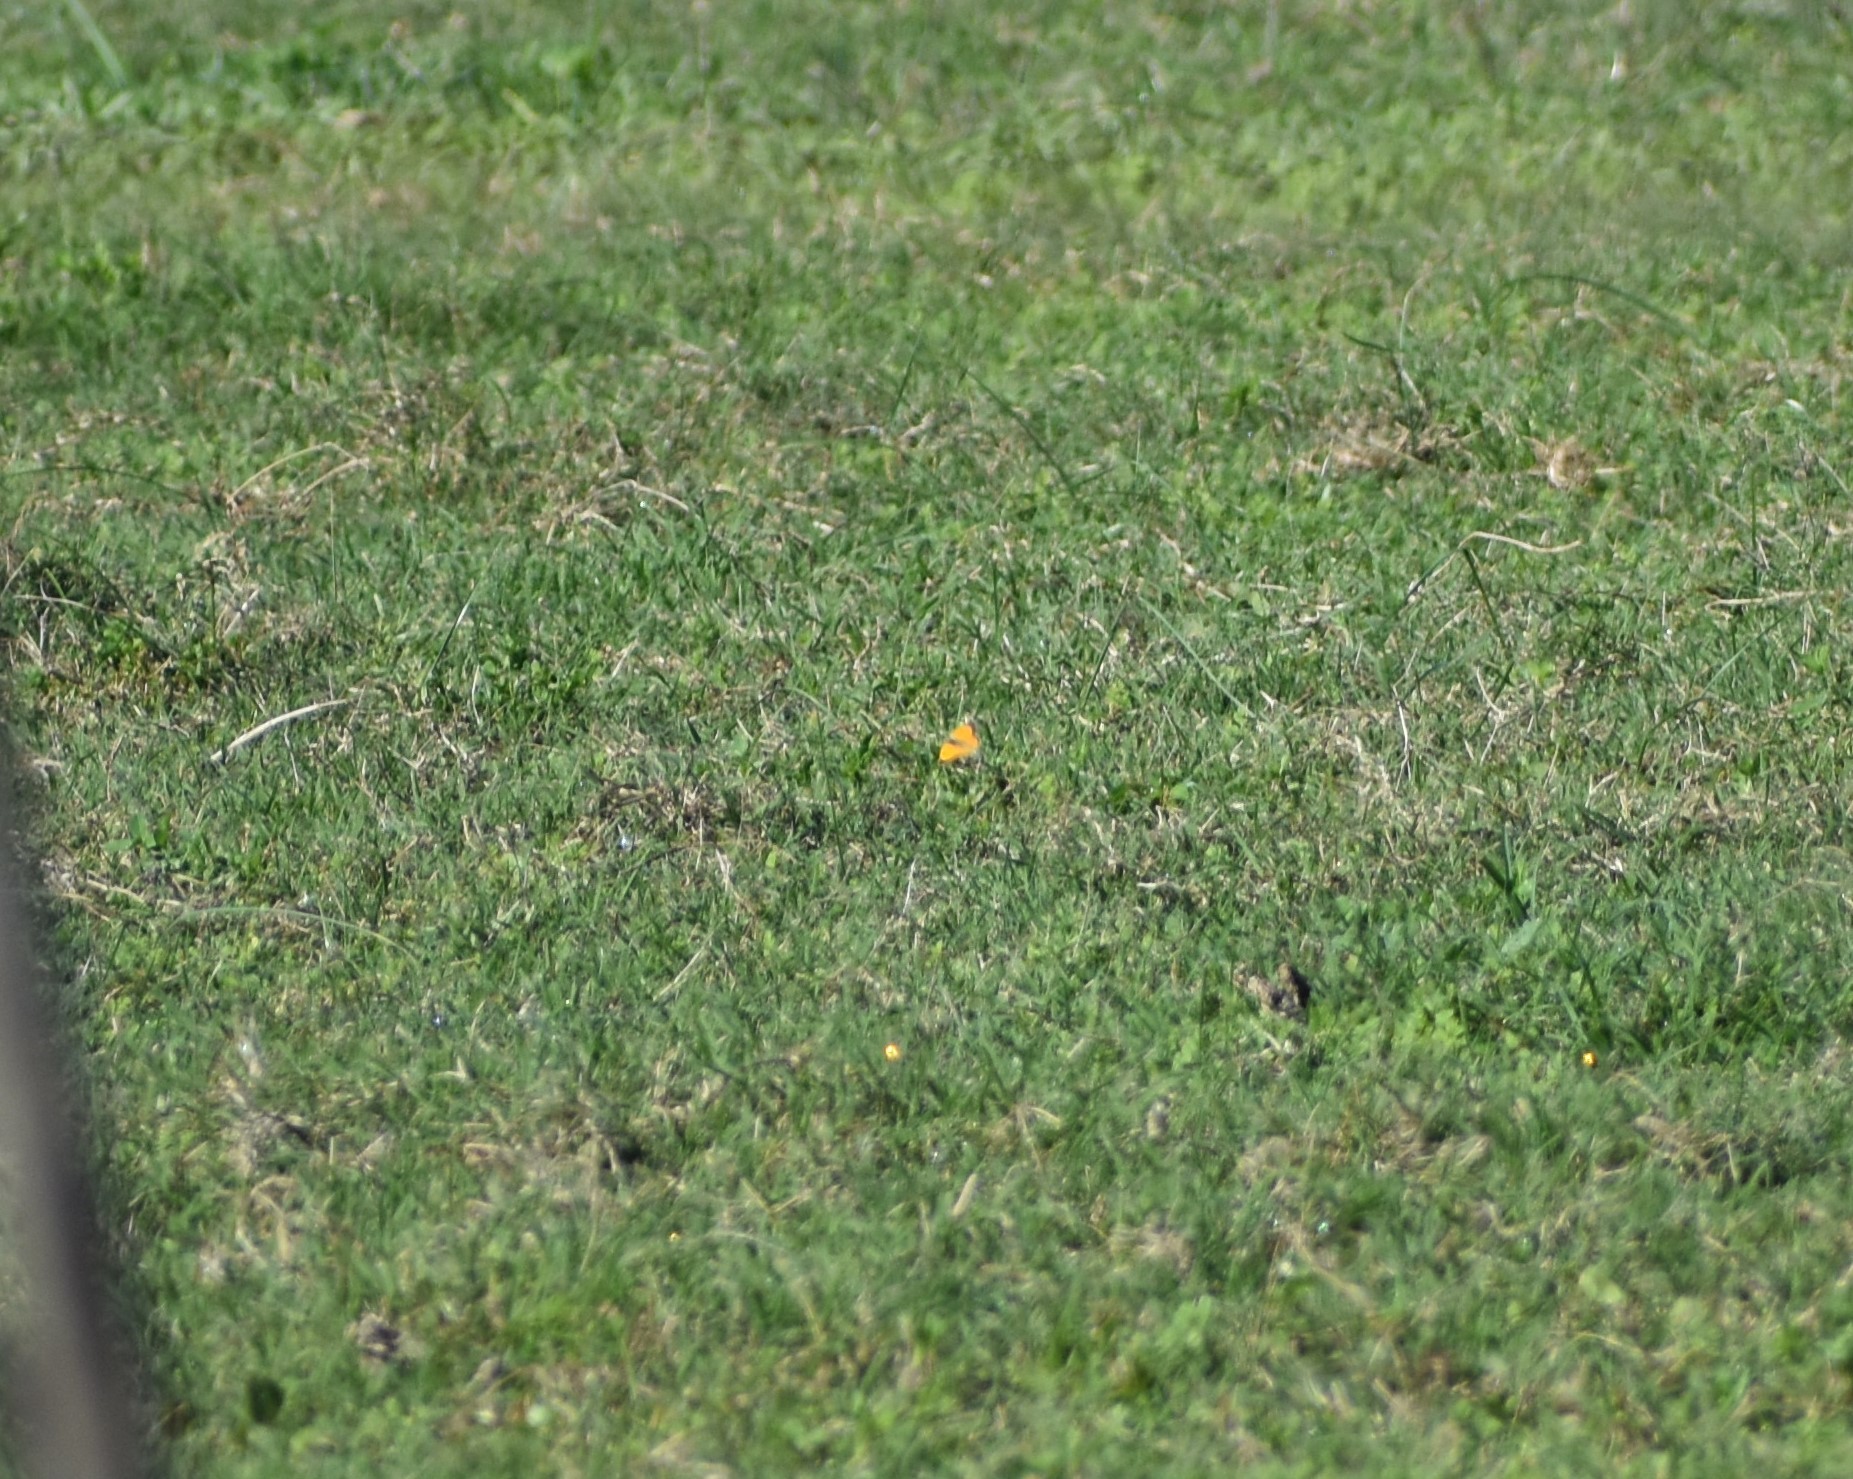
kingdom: Animalia
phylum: Arthropoda
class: Insecta
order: Lepidoptera
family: Pieridae
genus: Colias
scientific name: Colias electo
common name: African clouded yellow
